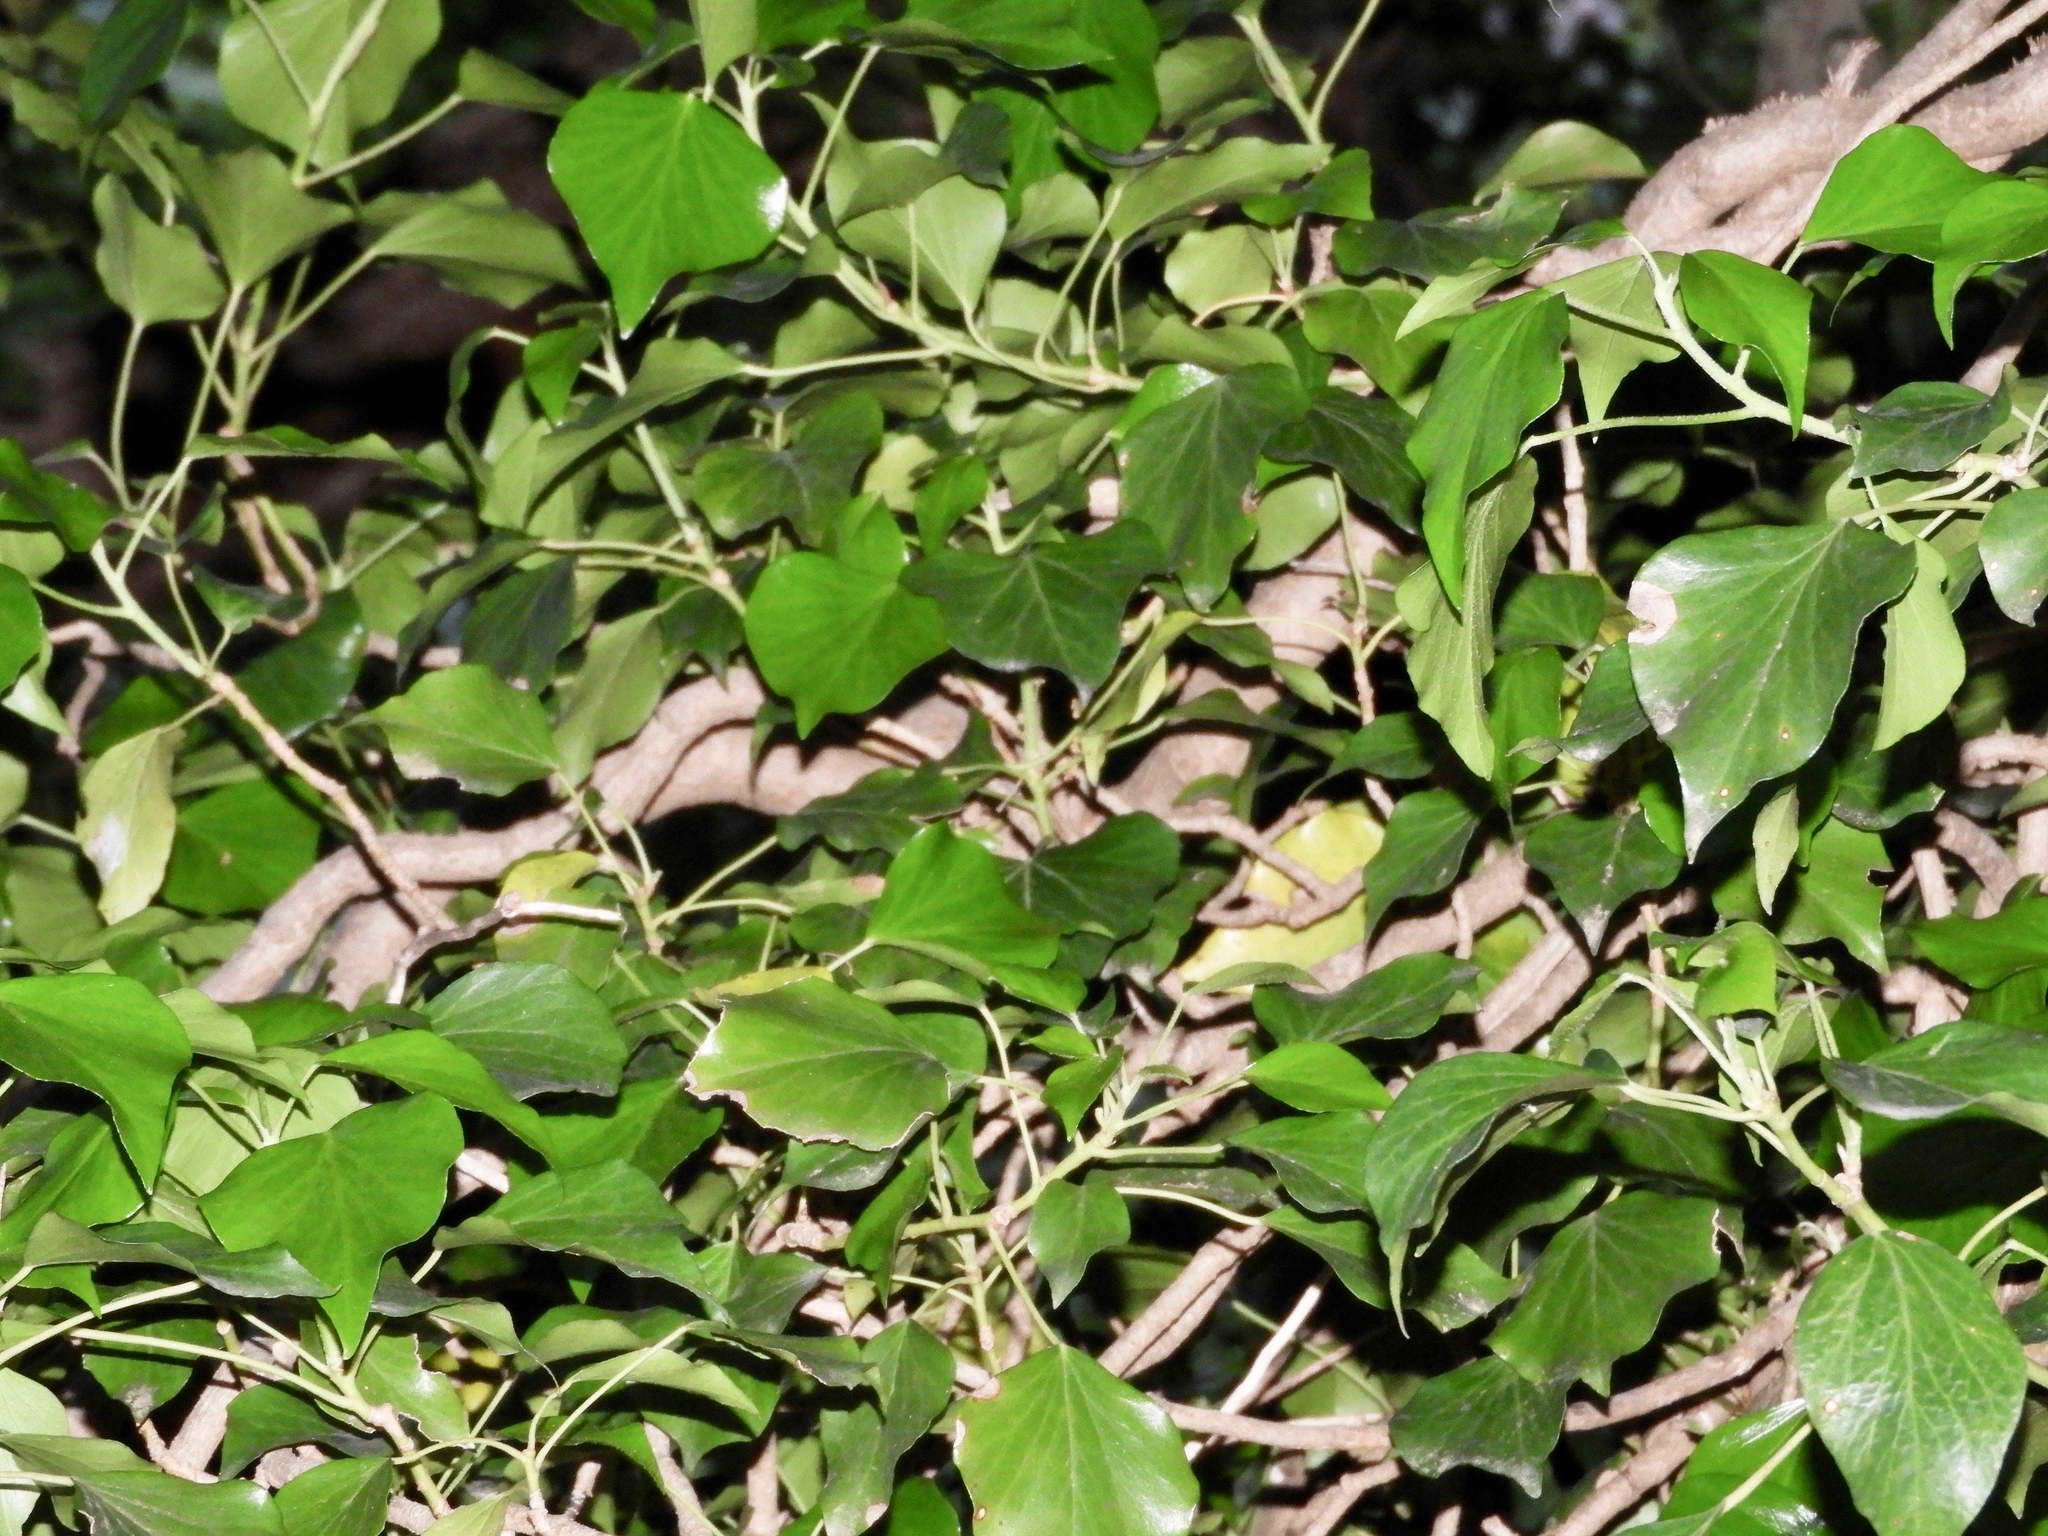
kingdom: Plantae
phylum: Tracheophyta
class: Magnoliopsida
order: Apiales
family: Araliaceae
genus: Hedera
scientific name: Hedera helix
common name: Ivy
